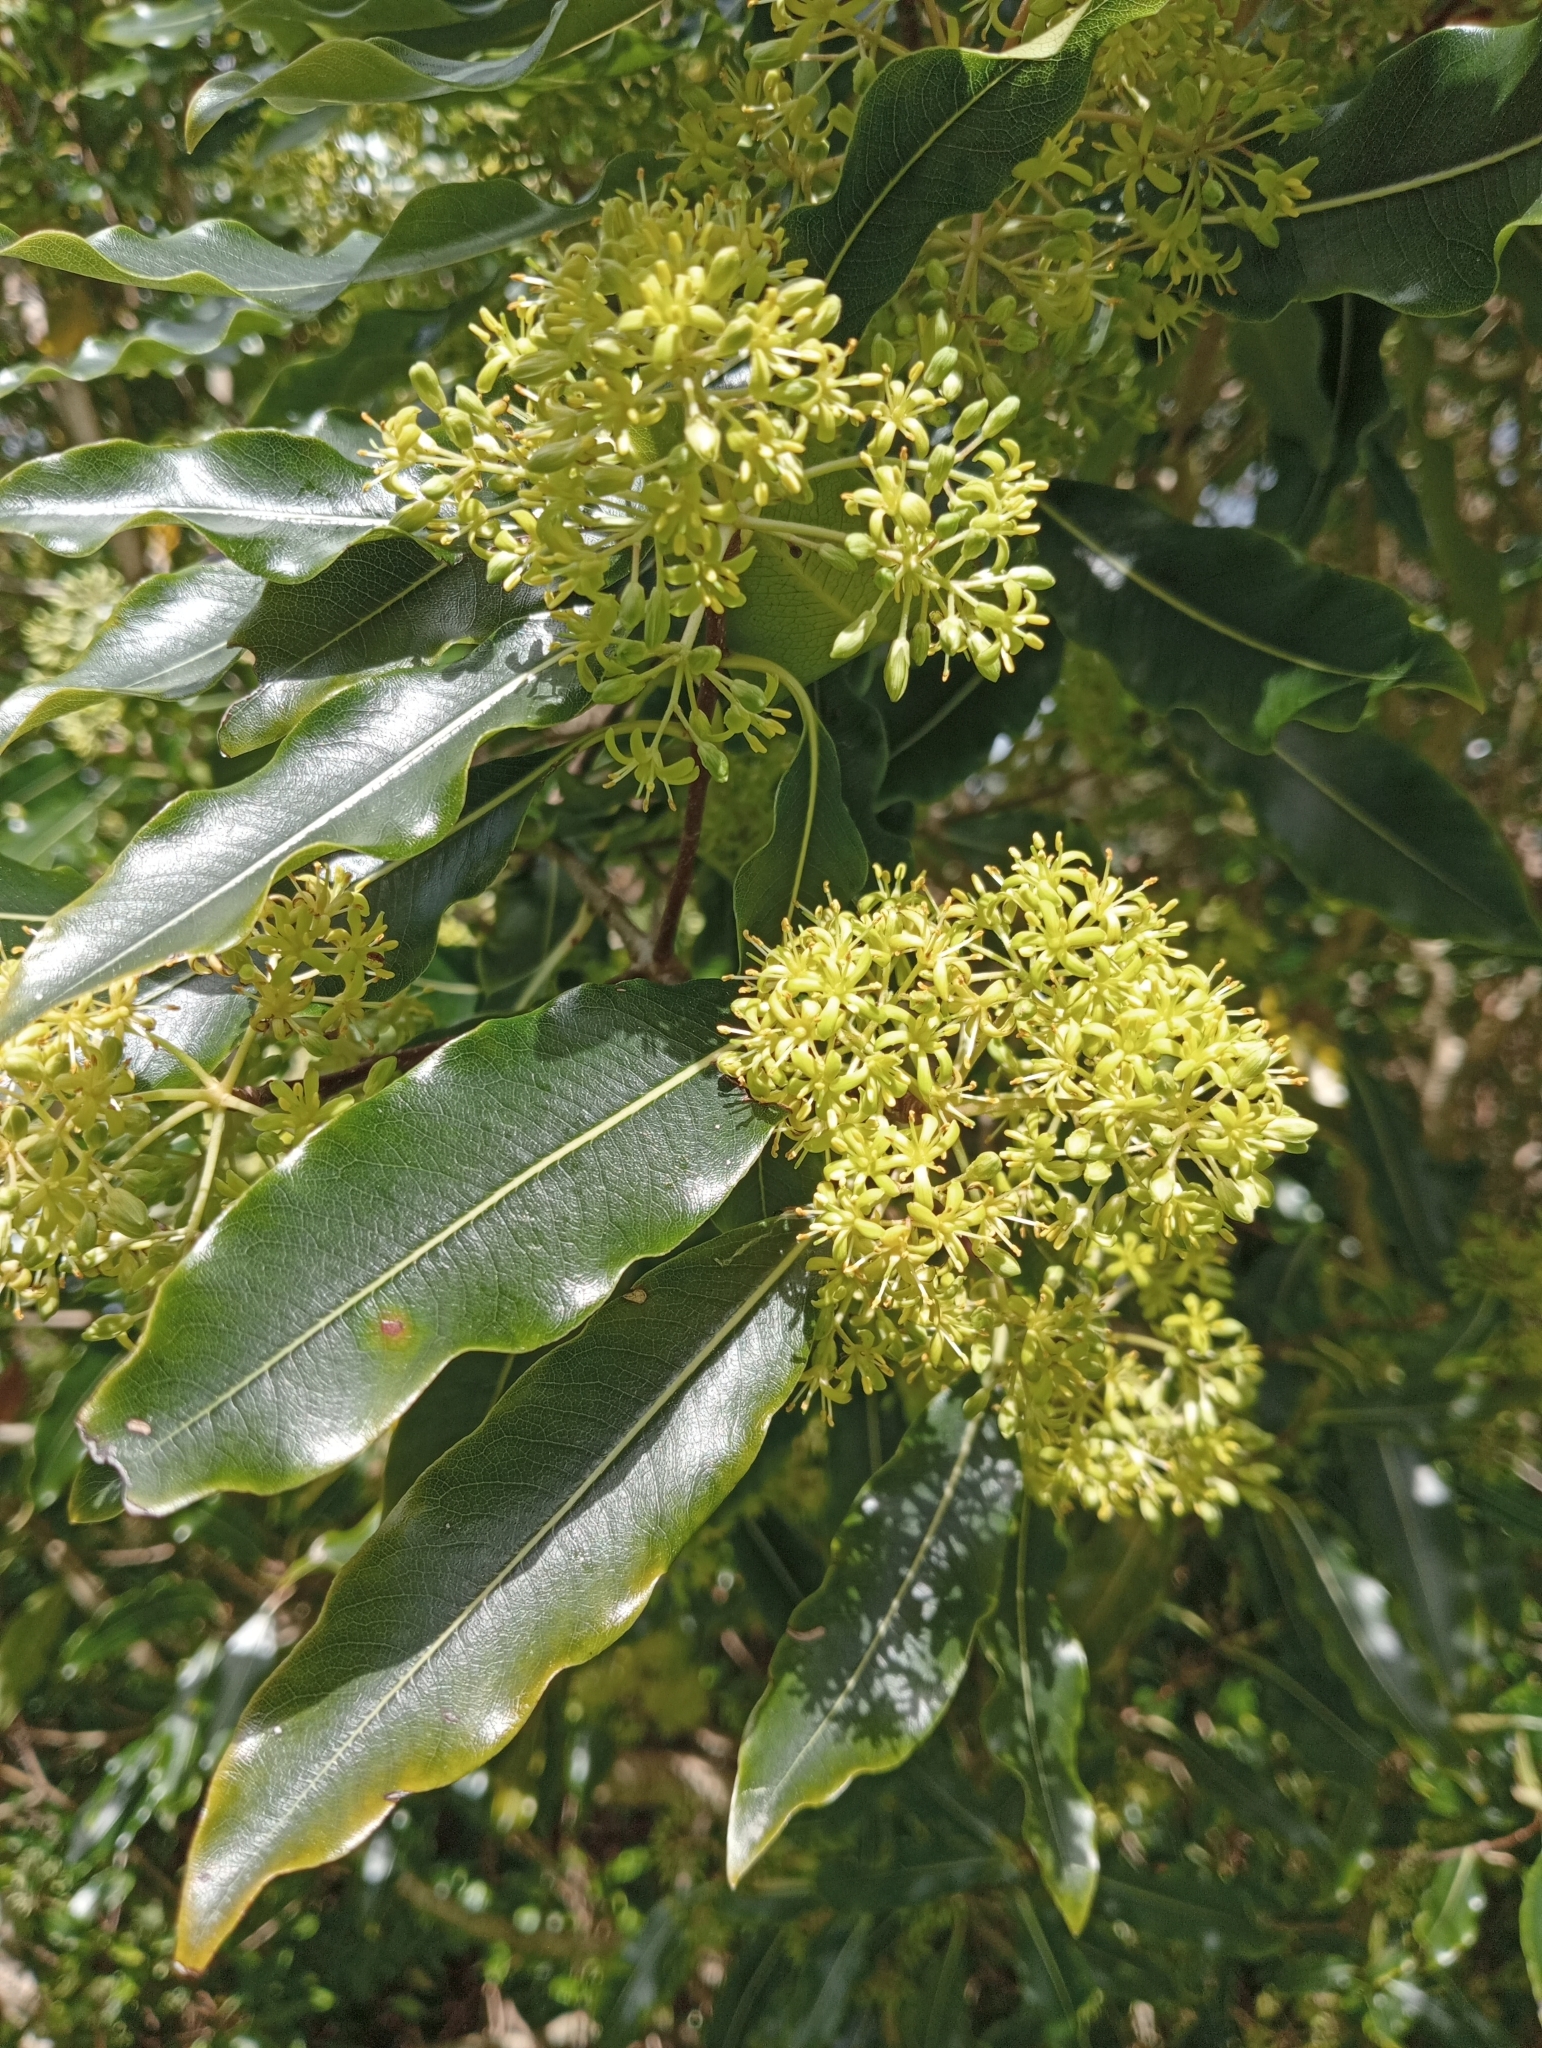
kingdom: Plantae
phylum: Tracheophyta
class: Magnoliopsida
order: Apiales
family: Pittosporaceae
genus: Pittosporum
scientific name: Pittosporum eugenioides
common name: Lemonwood
